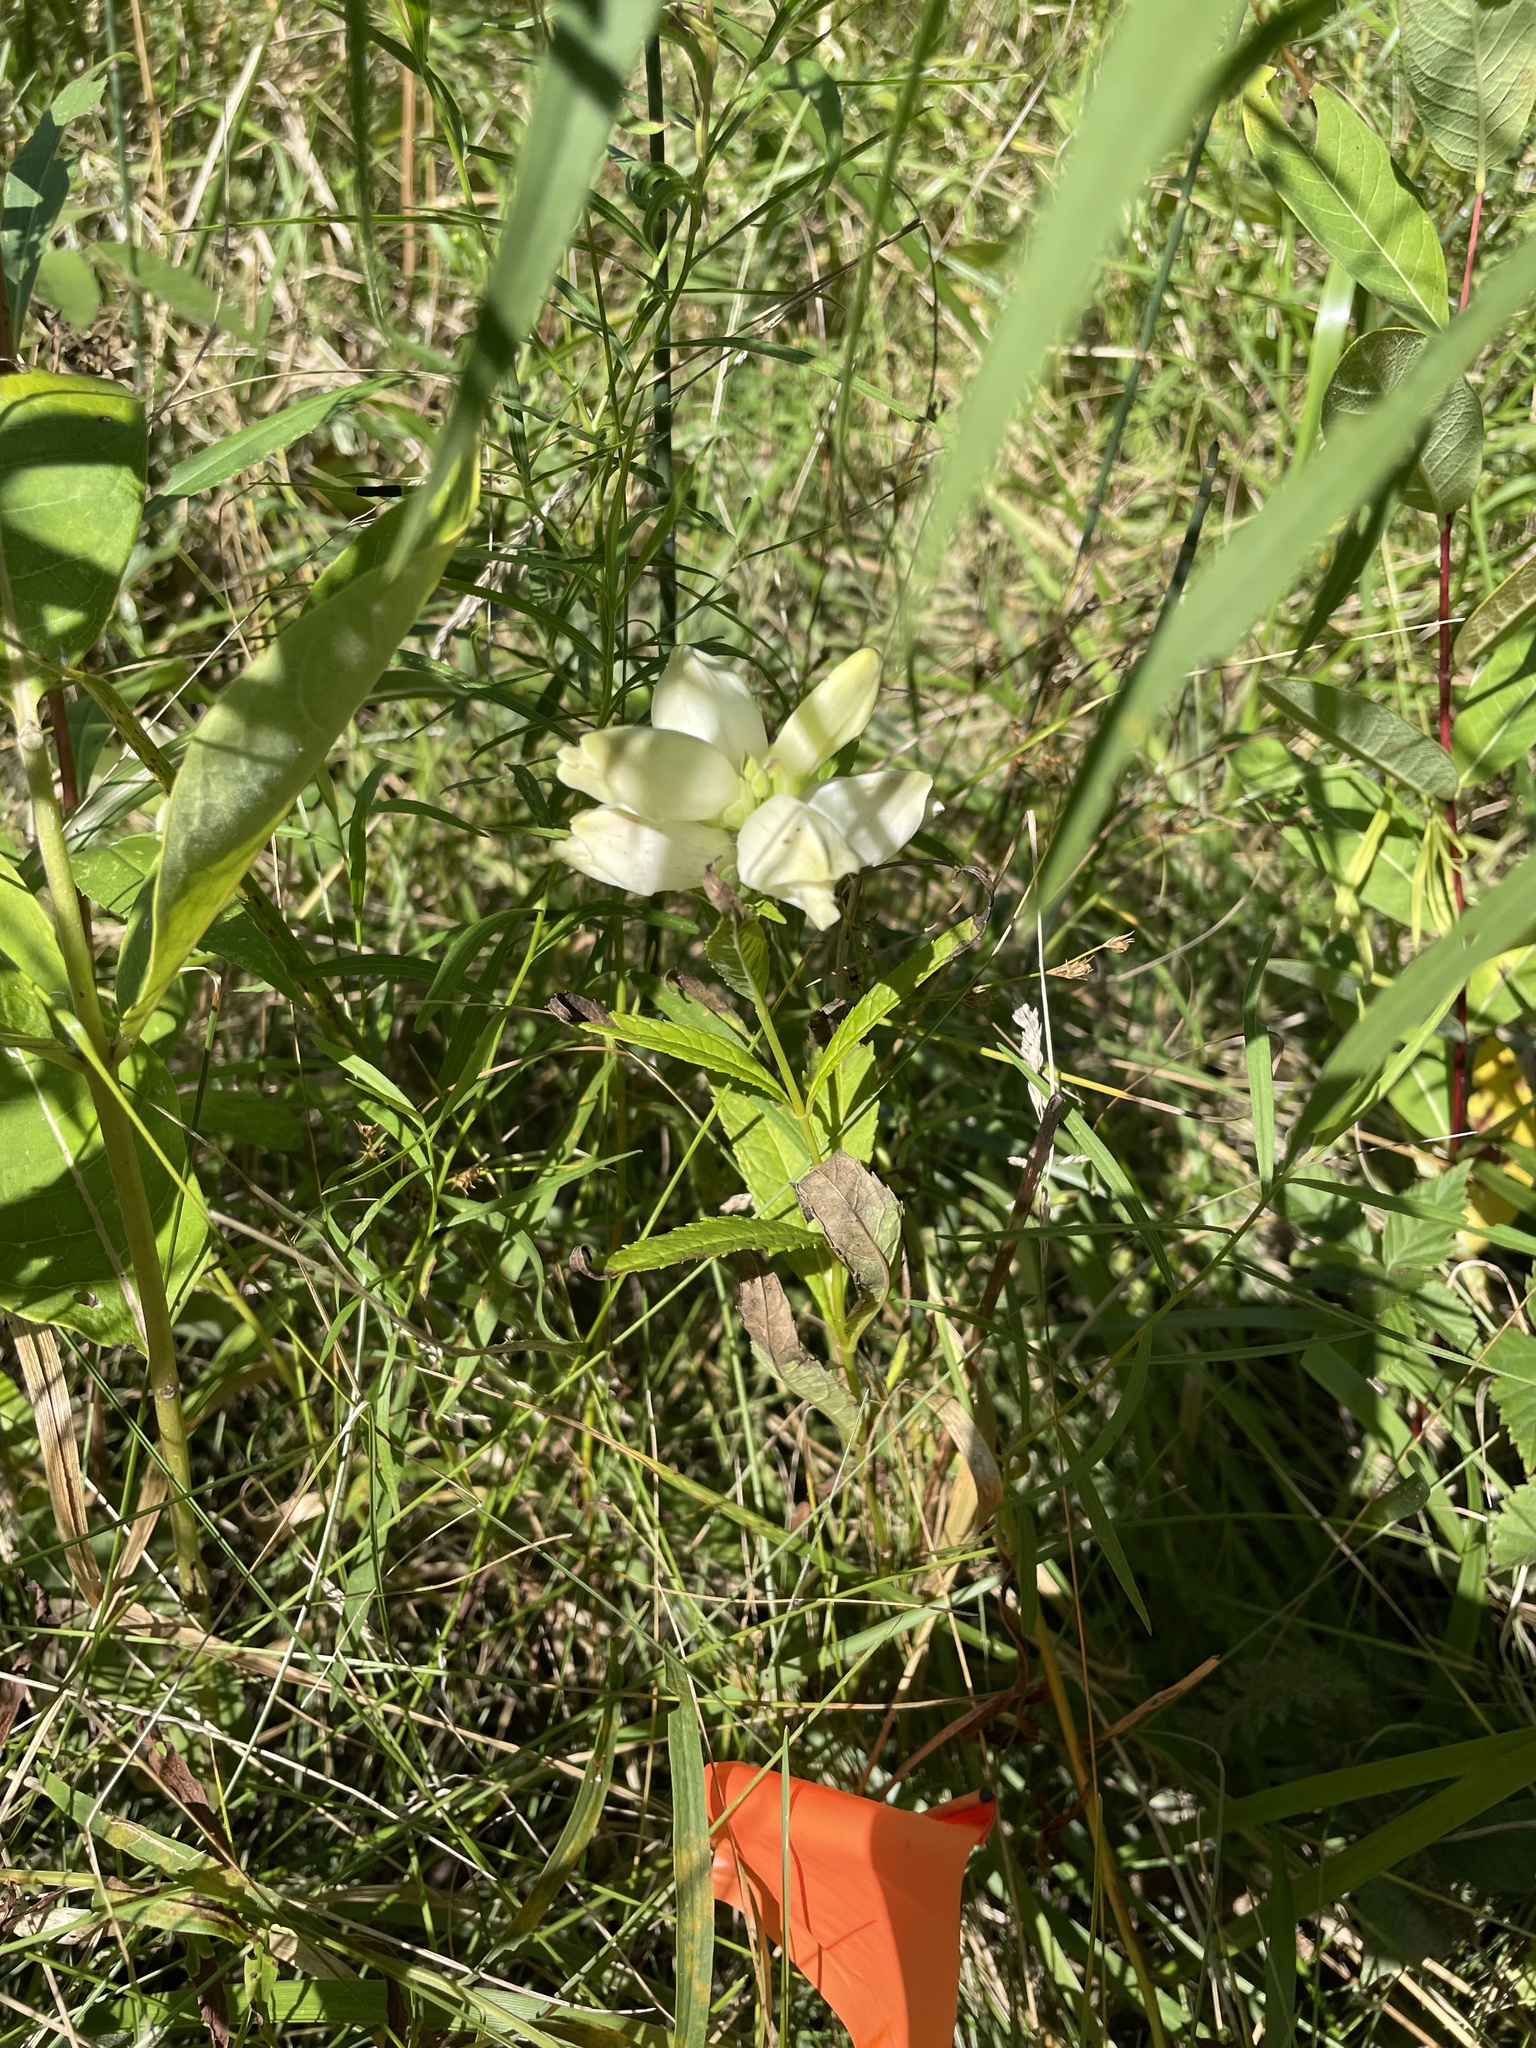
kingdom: Plantae
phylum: Tracheophyta
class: Magnoliopsida
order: Lamiales
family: Plantaginaceae
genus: Chelone
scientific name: Chelone glabra
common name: Snakehead
